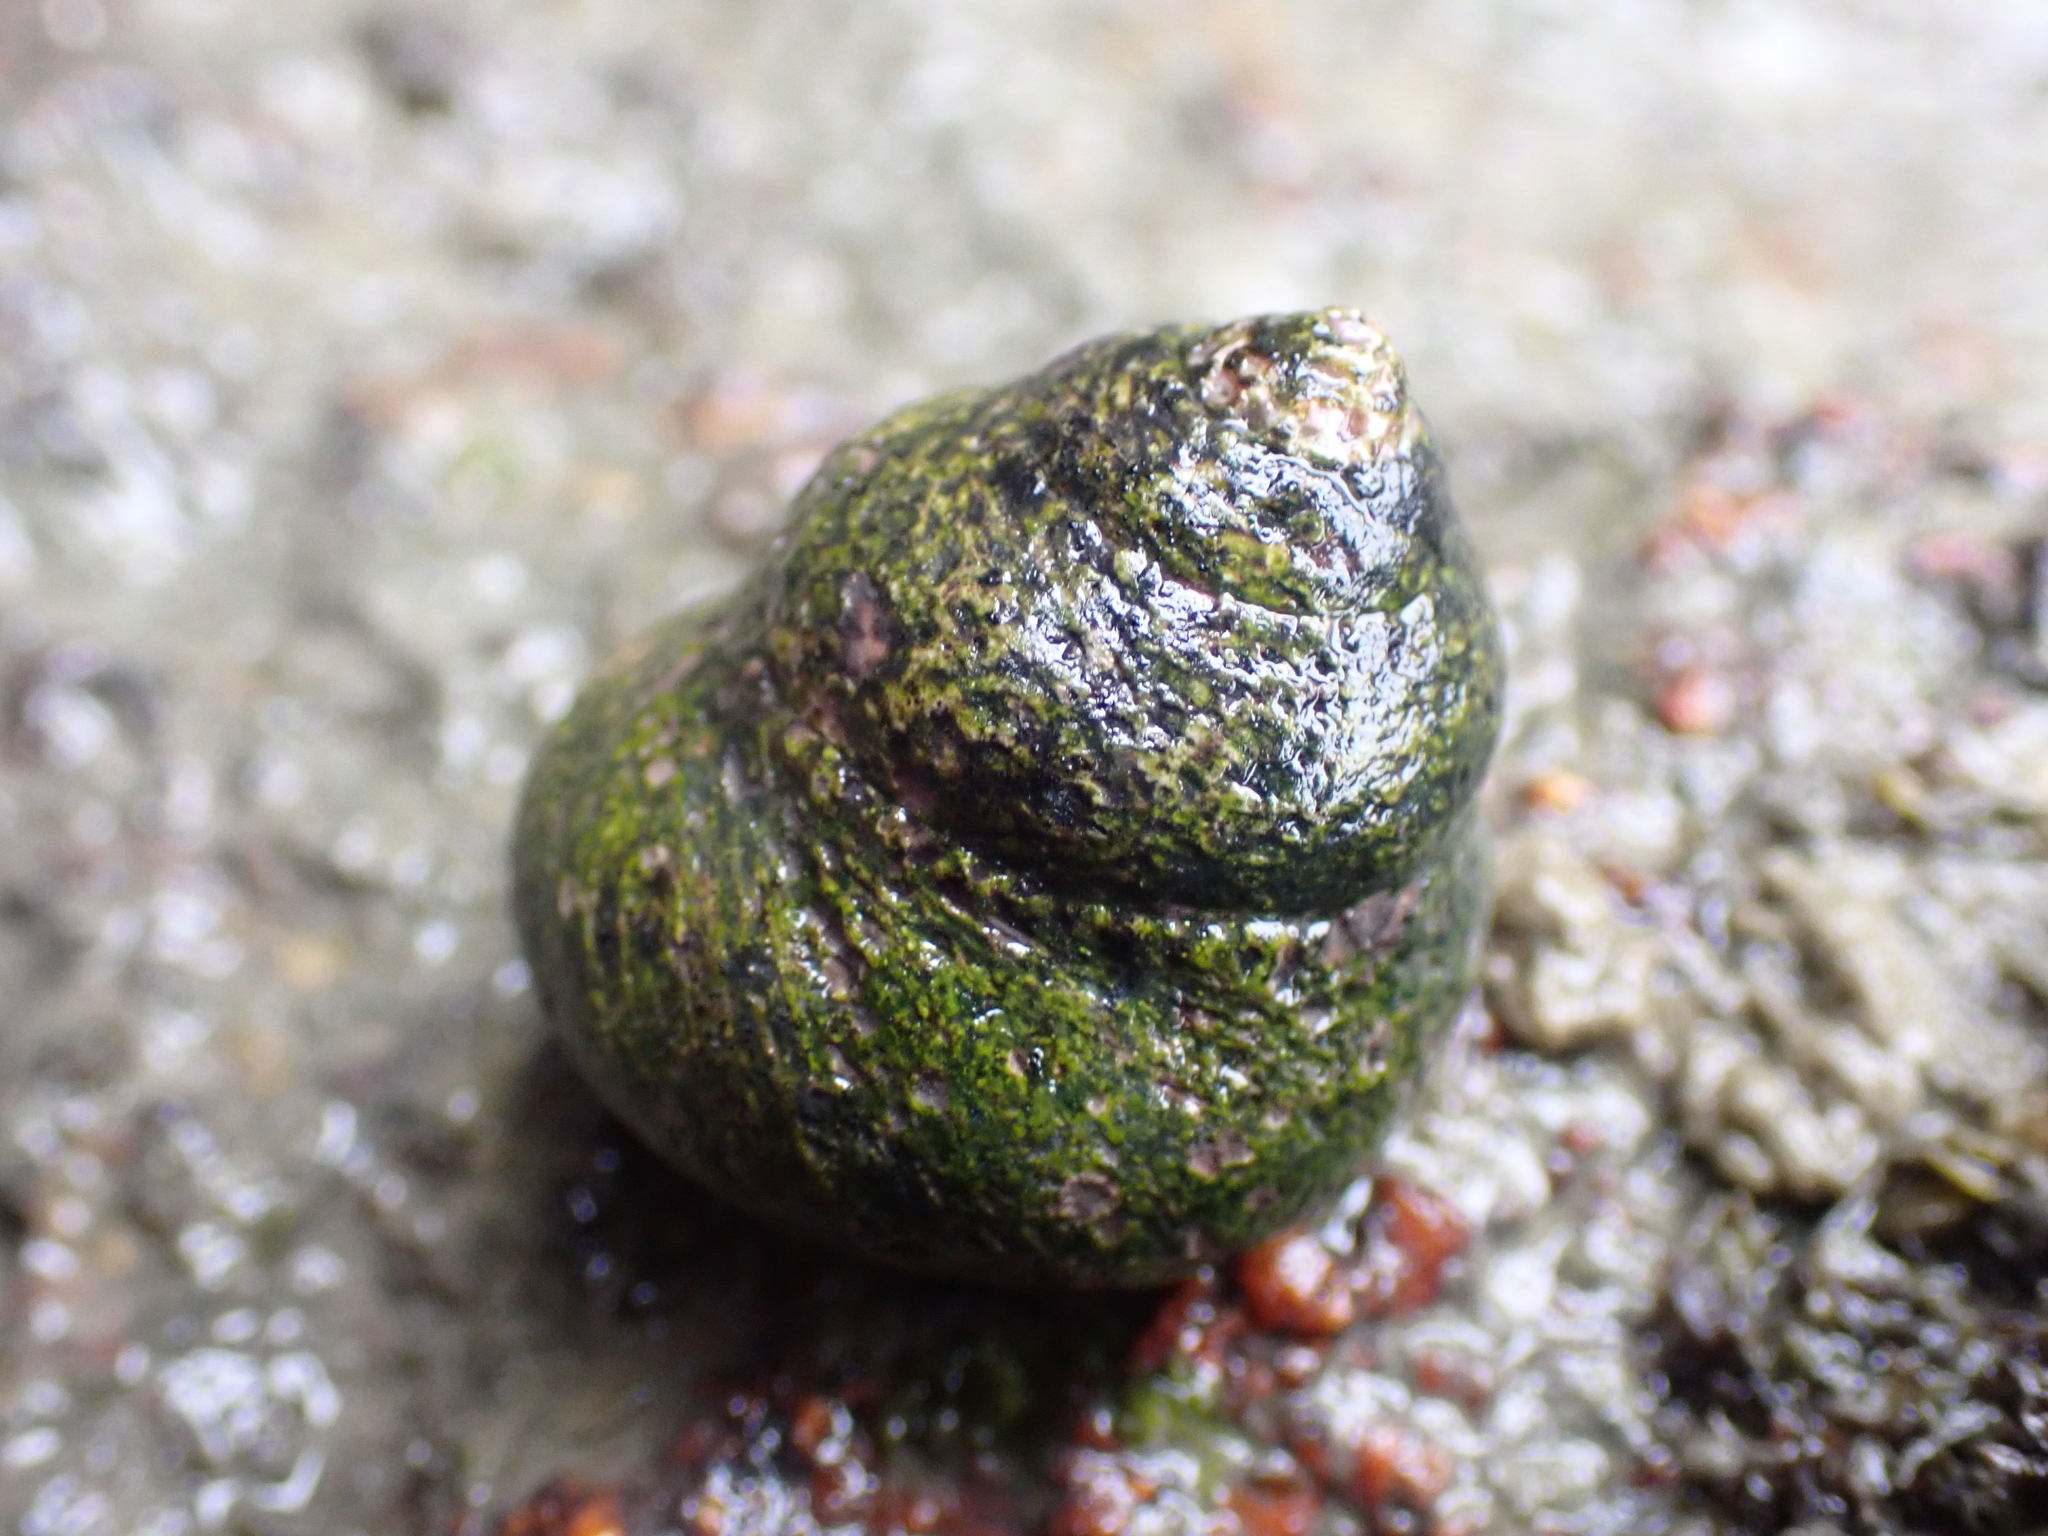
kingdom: Animalia
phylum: Mollusca
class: Gastropoda
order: Trochida
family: Trochidae
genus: Phorcus
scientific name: Phorcus lineatus
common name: Toothed top shell
